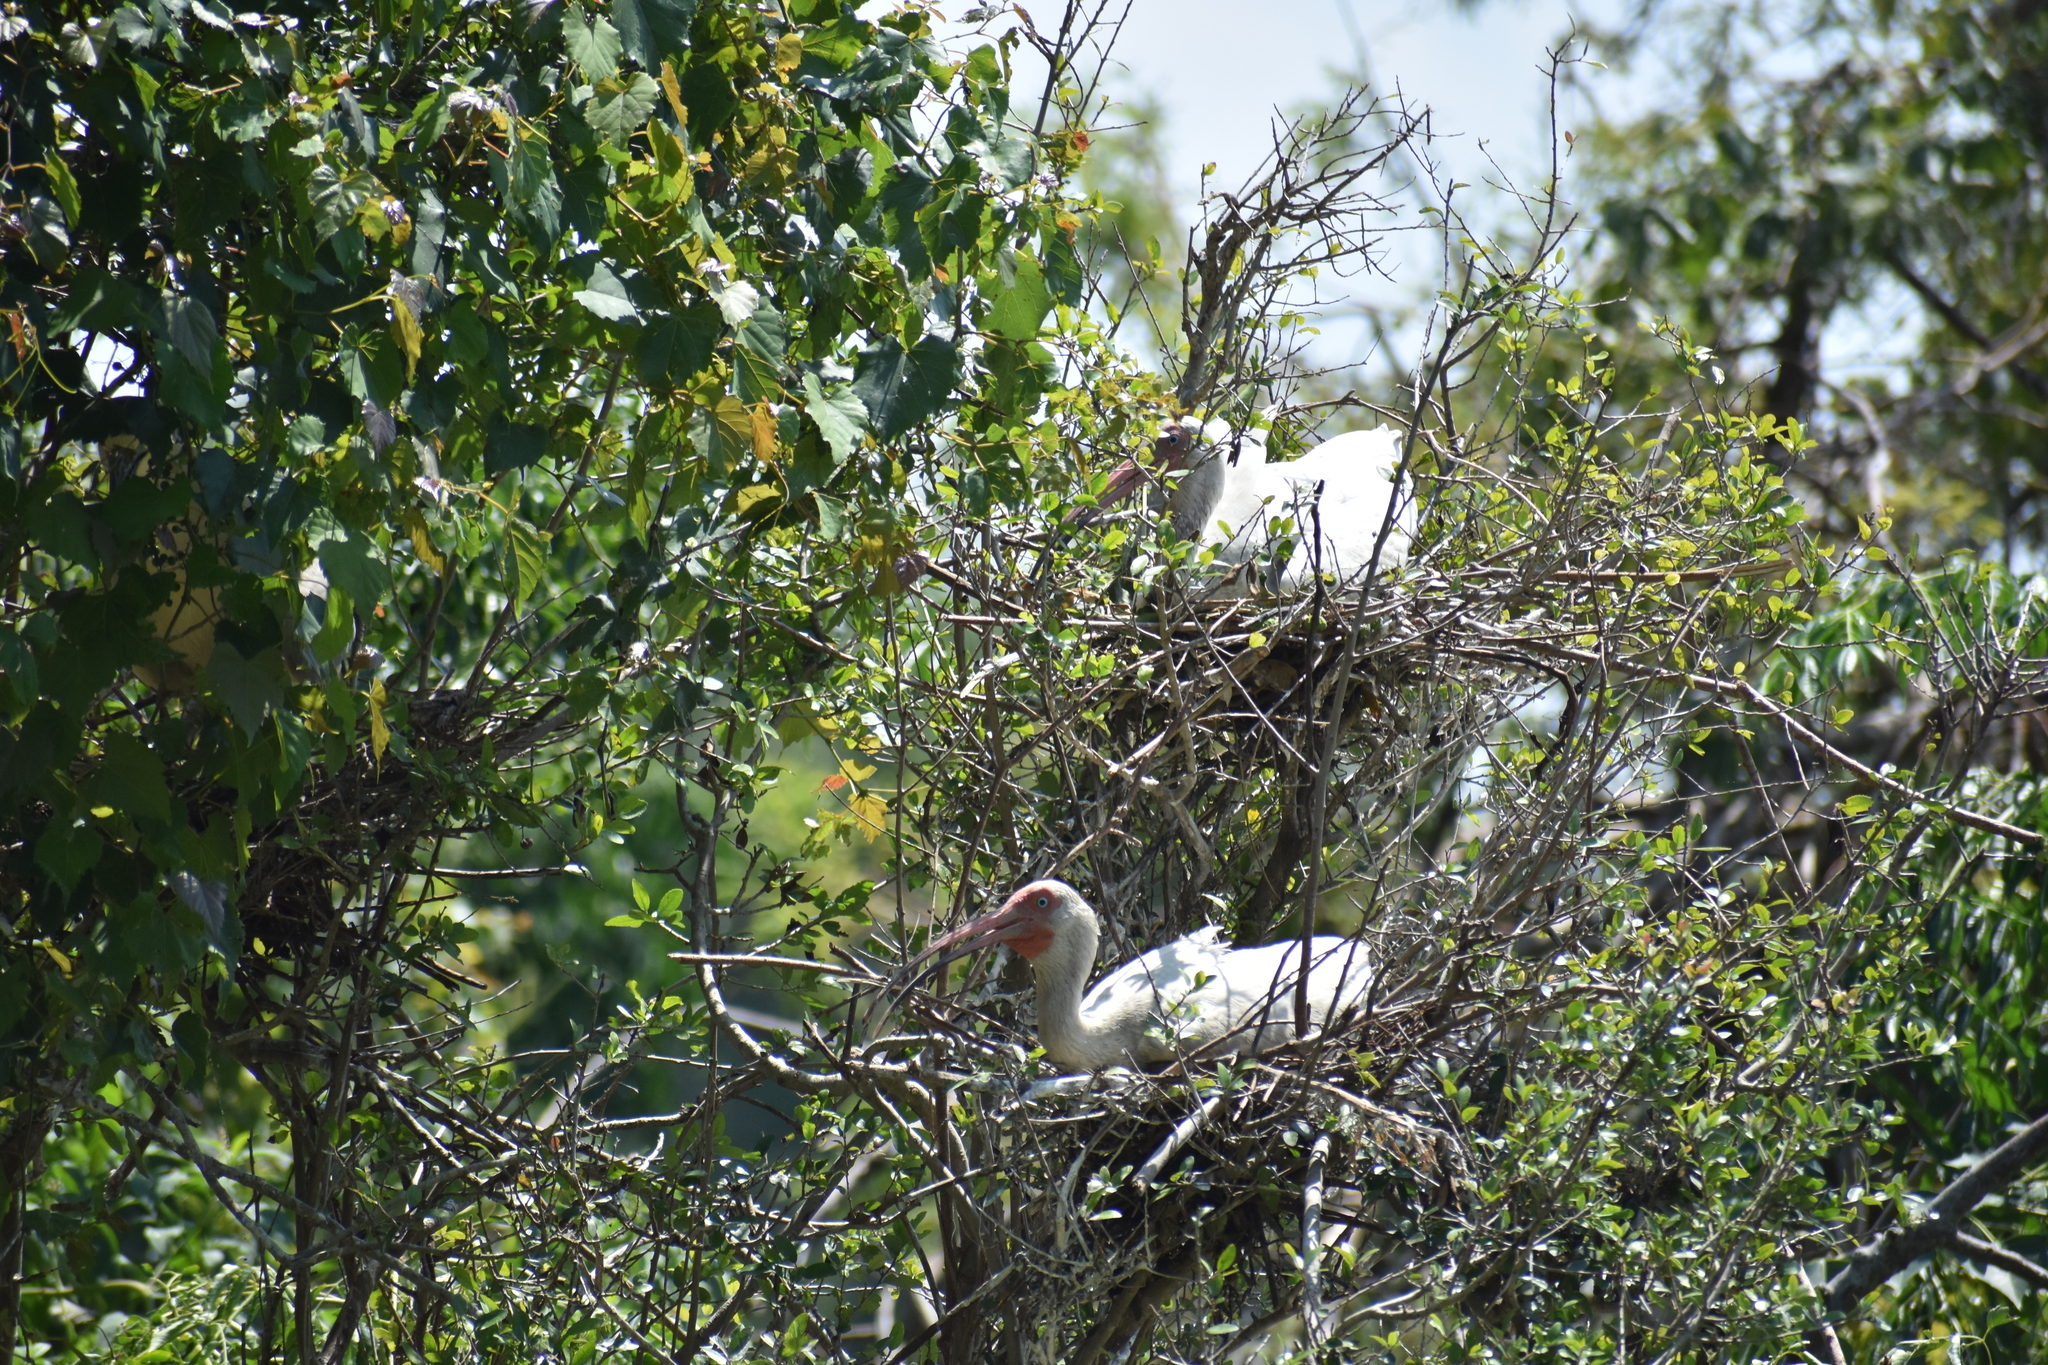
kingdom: Animalia
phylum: Chordata
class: Aves
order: Pelecaniformes
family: Threskiornithidae
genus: Eudocimus
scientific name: Eudocimus albus
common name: White ibis
